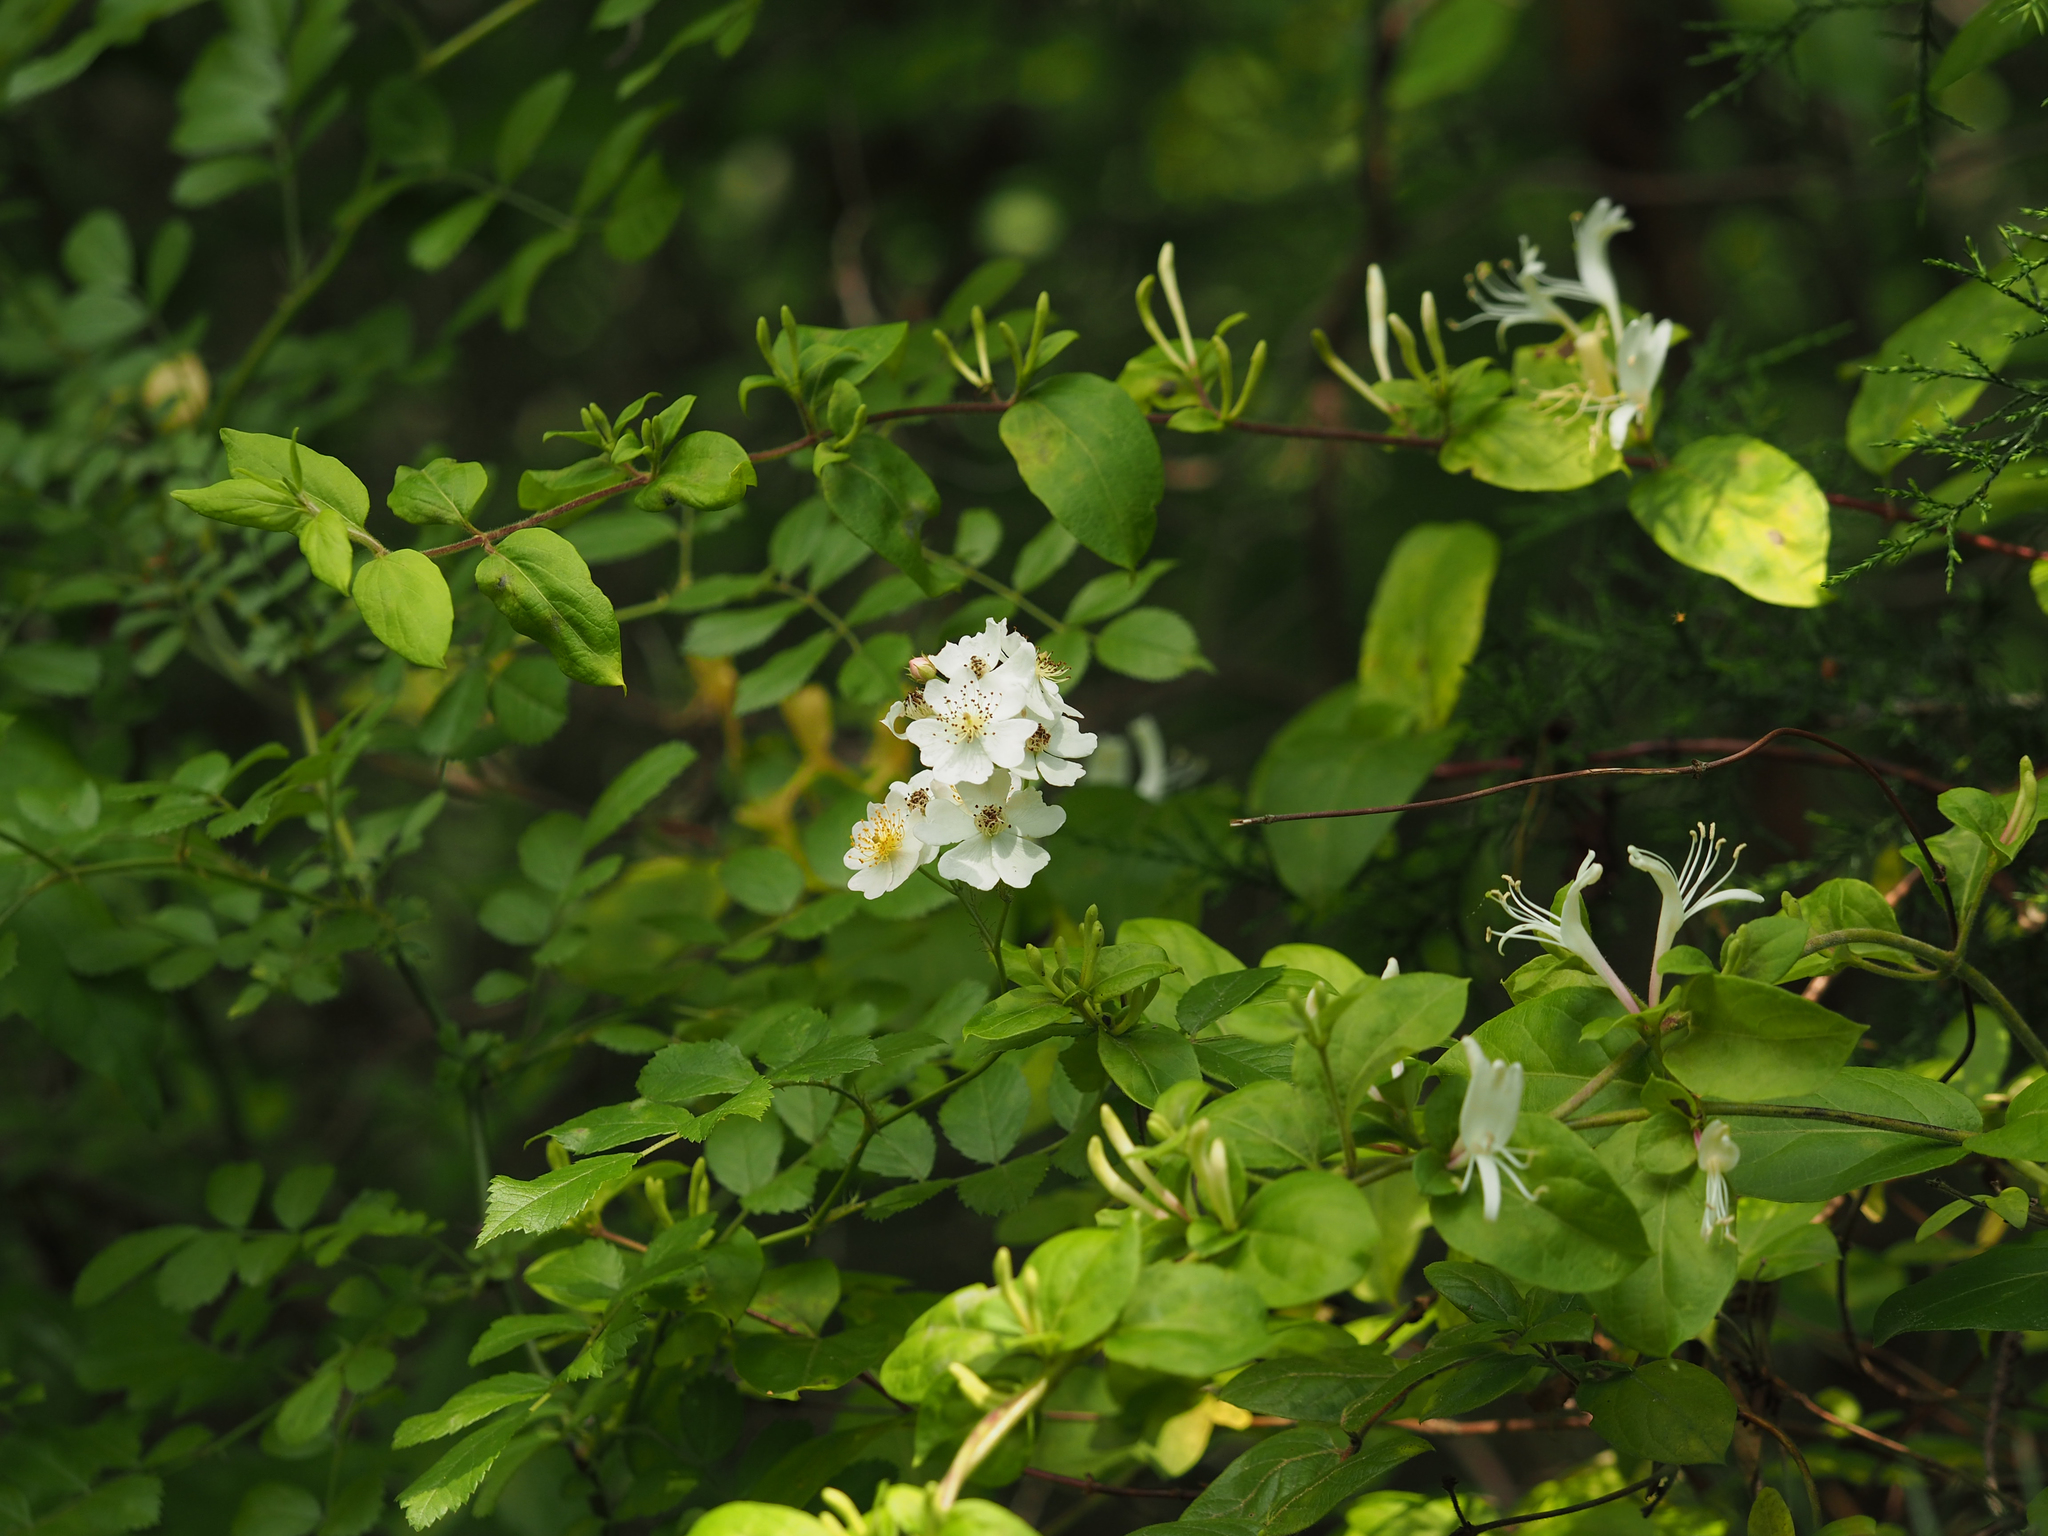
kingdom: Plantae
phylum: Tracheophyta
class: Magnoliopsida
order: Rosales
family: Rosaceae
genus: Rosa
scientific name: Rosa multiflora
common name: Multiflora rose
